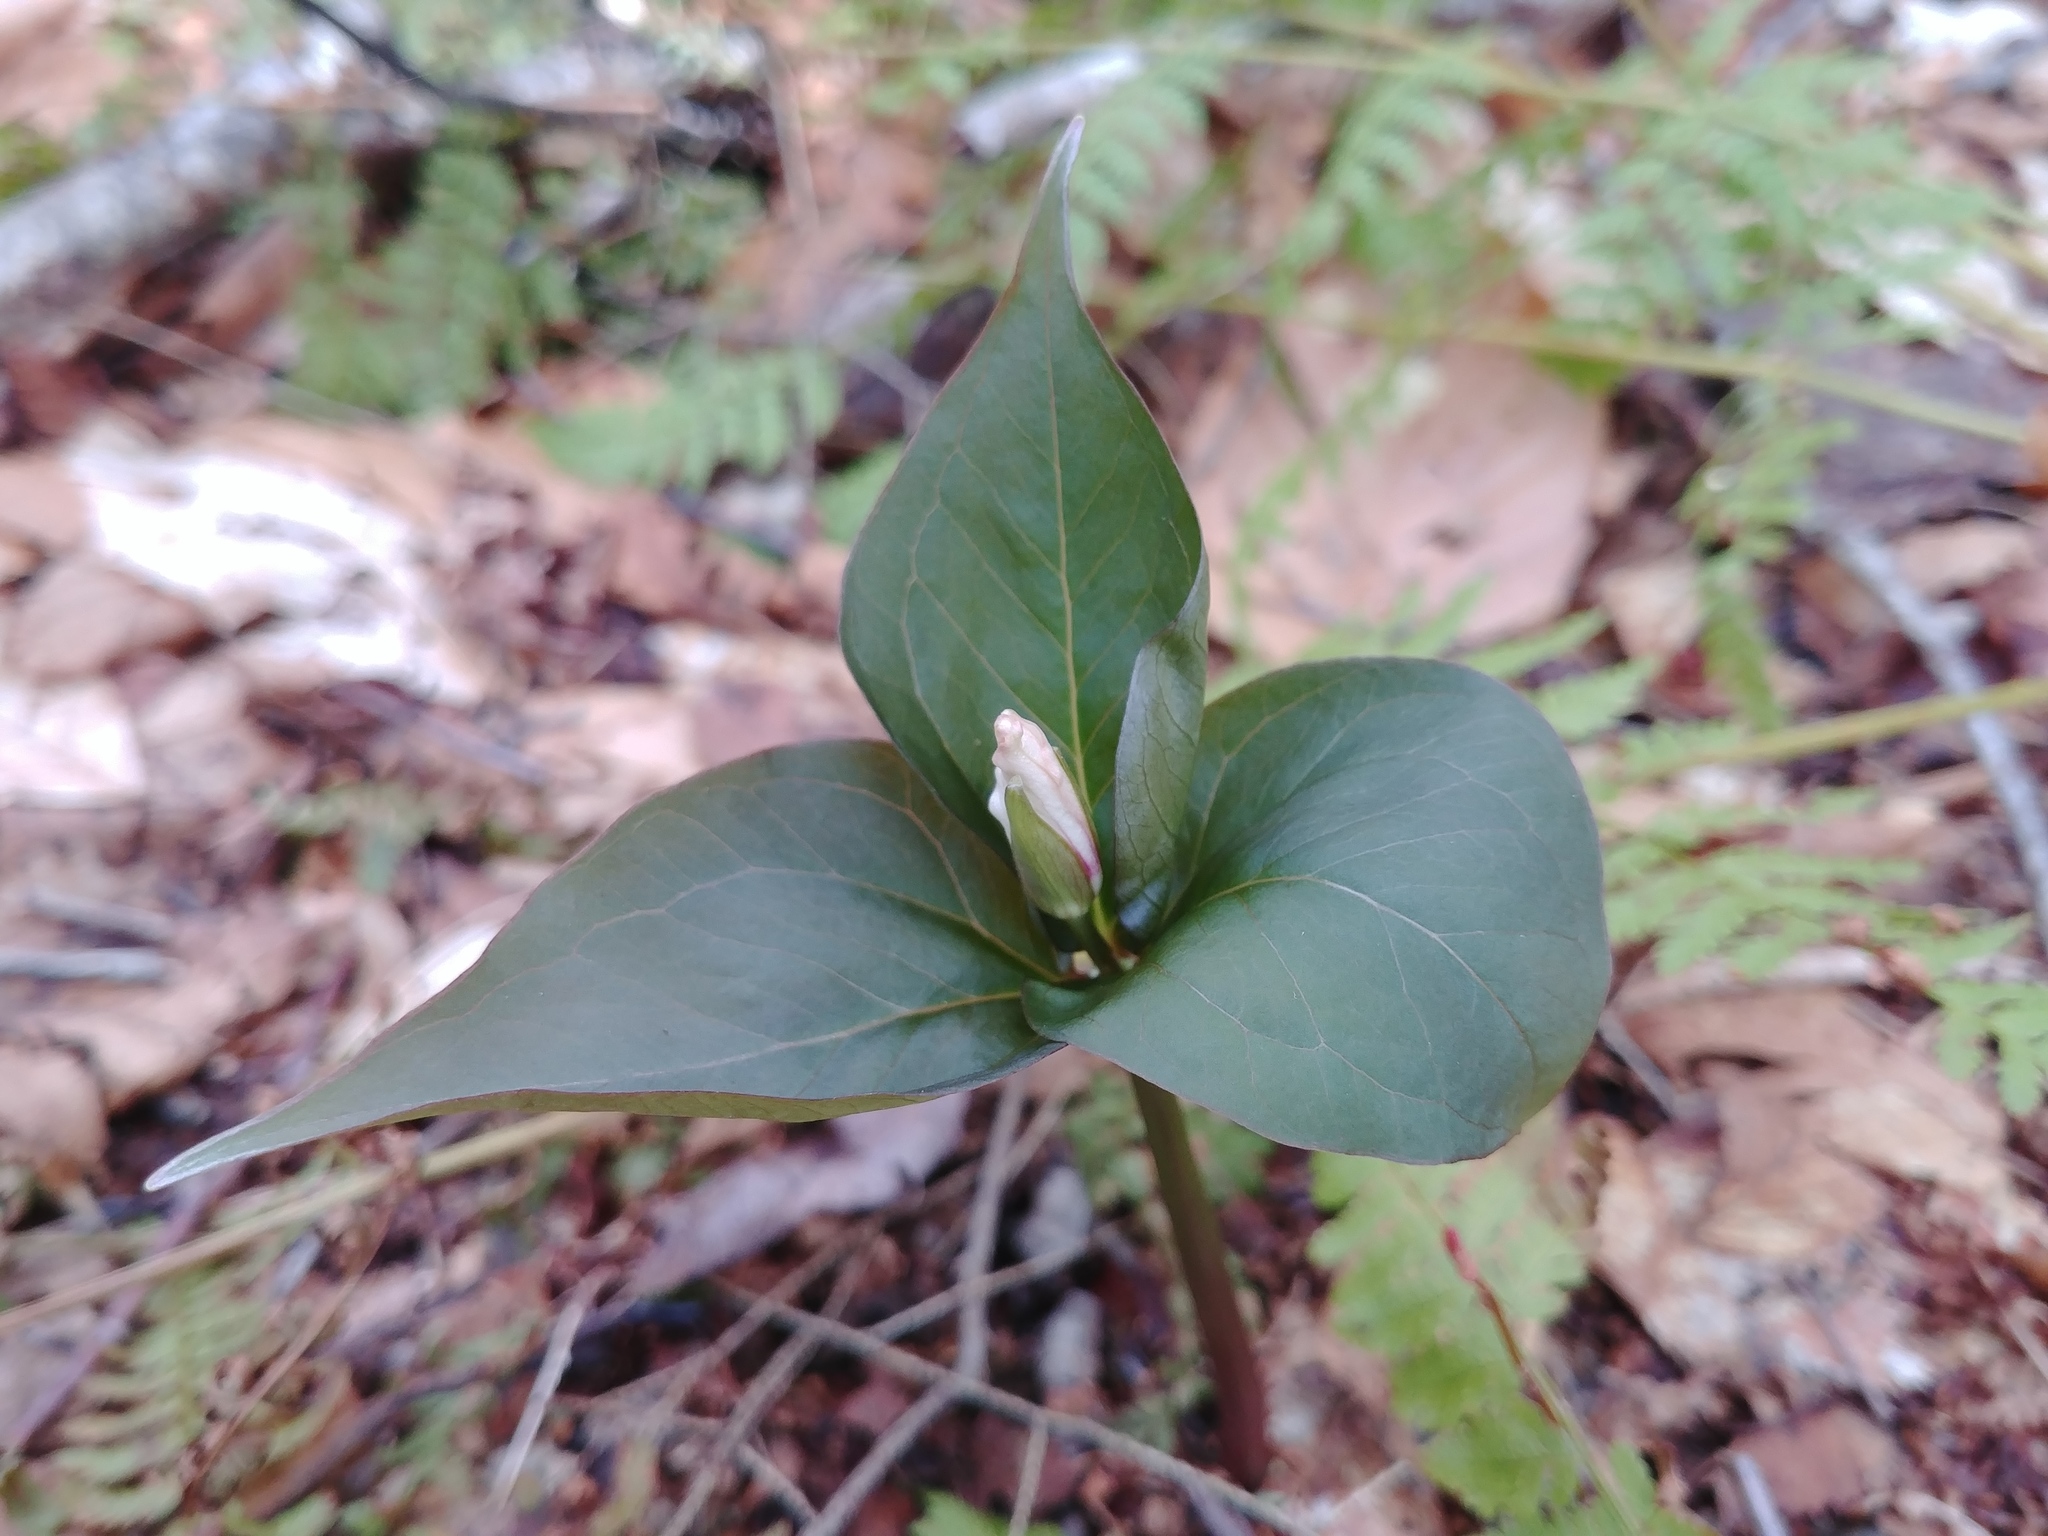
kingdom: Plantae
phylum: Tracheophyta
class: Liliopsida
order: Liliales
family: Melanthiaceae
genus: Trillium
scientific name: Trillium undulatum
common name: Paint trillium
